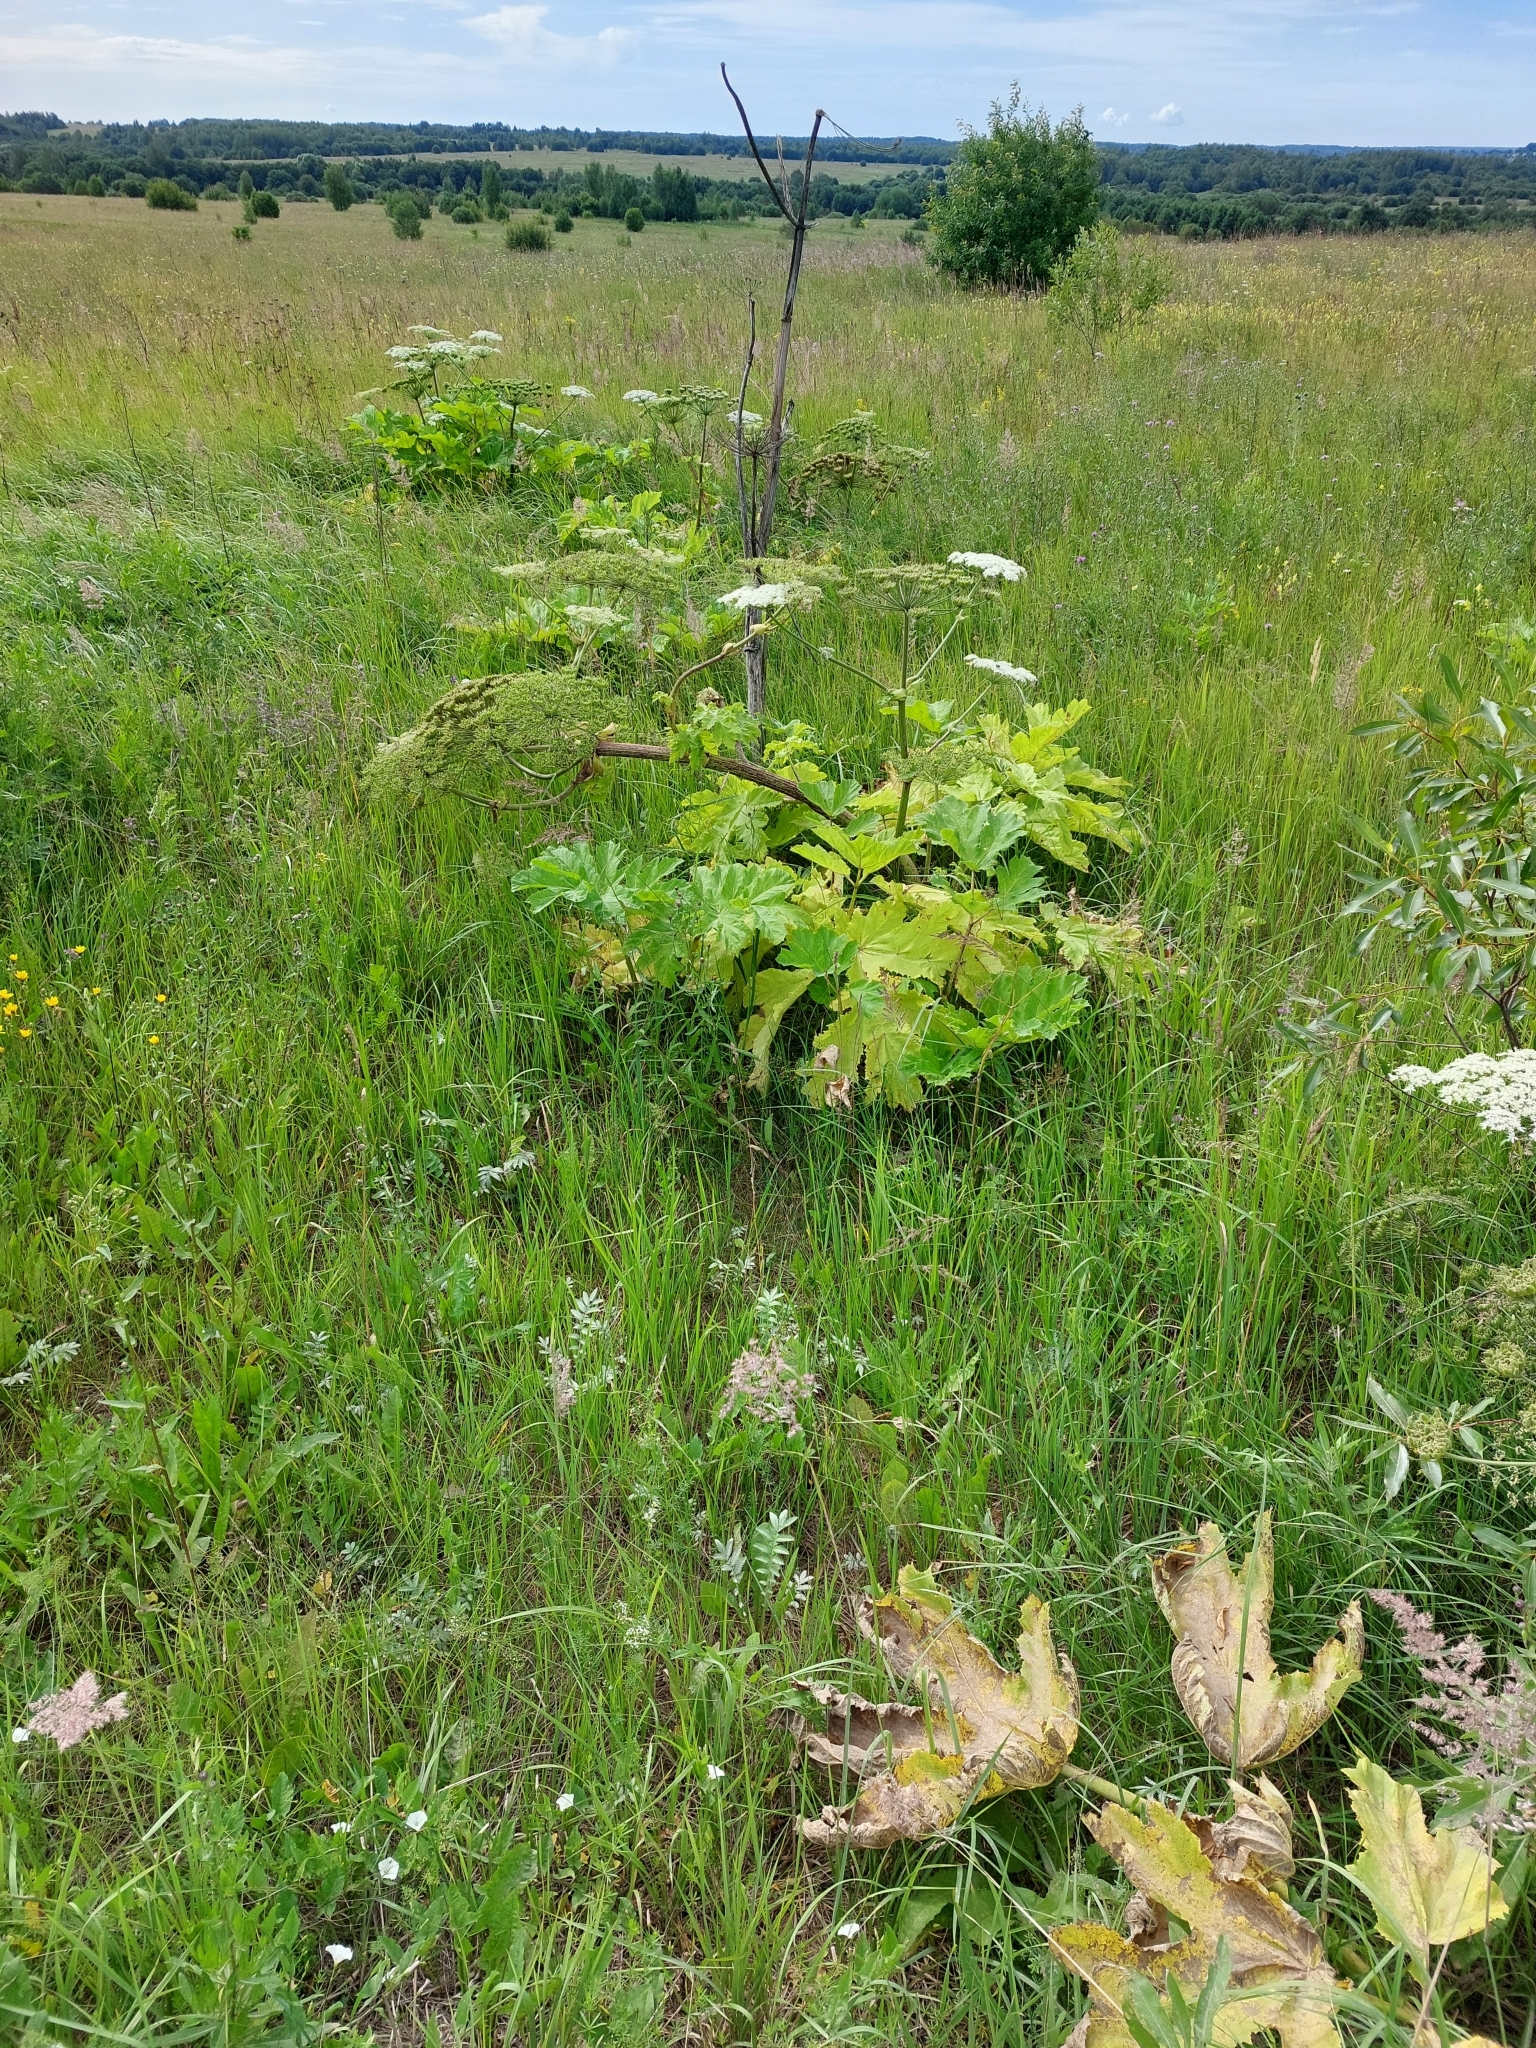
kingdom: Plantae
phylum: Tracheophyta
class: Magnoliopsida
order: Apiales
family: Apiaceae
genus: Heracleum
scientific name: Heracleum sosnowskyi
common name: Sosnowsky's hogweed
